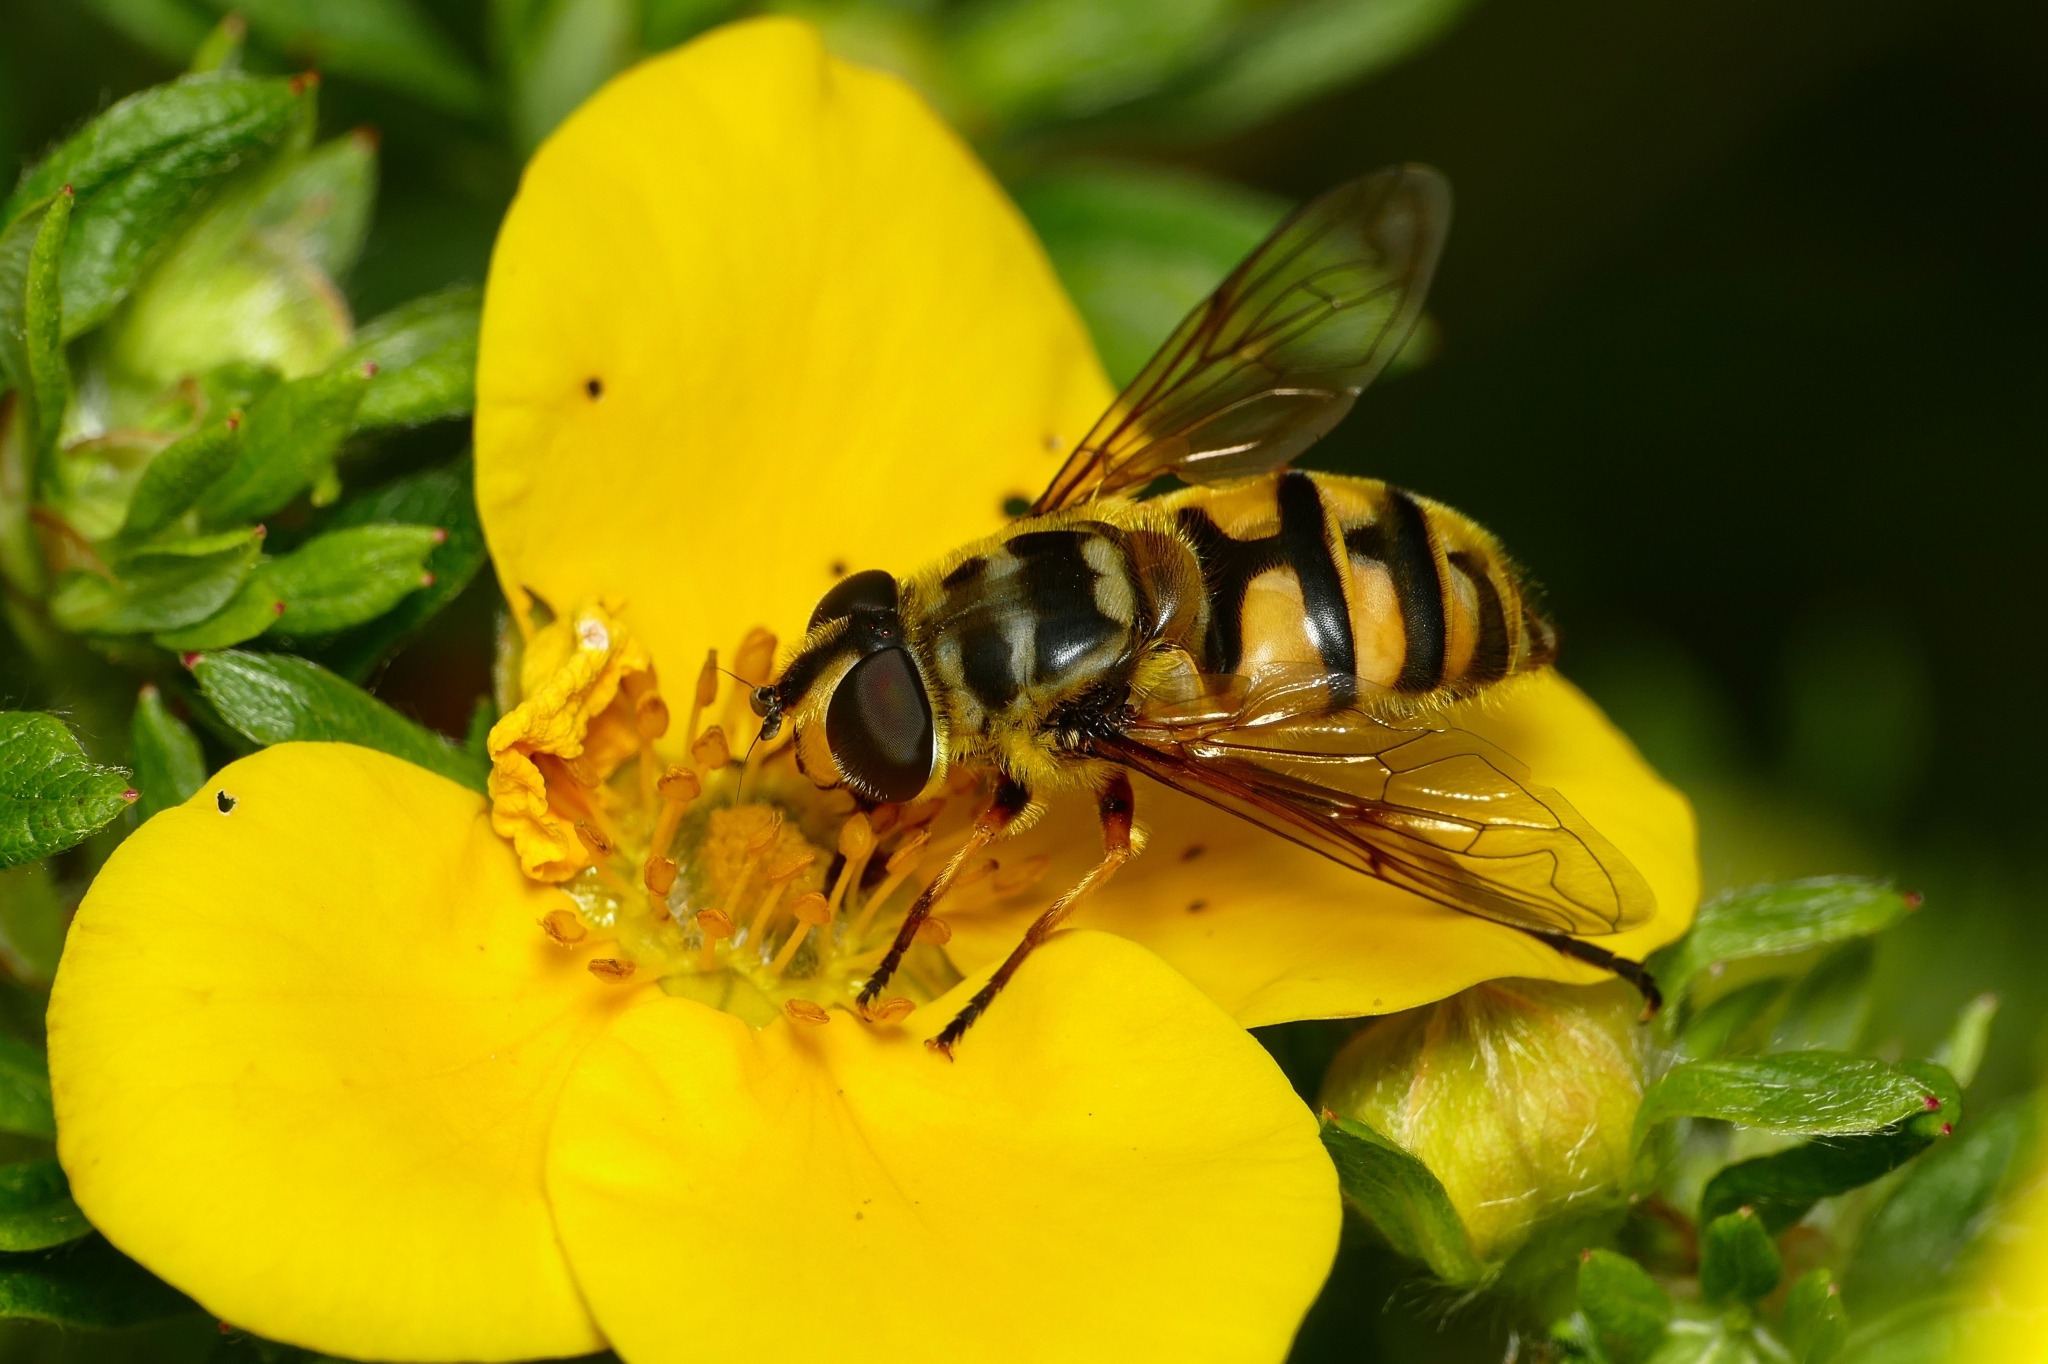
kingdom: Animalia
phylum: Arthropoda
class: Insecta
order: Diptera
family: Syrphidae
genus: Myathropa
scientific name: Myathropa florea
